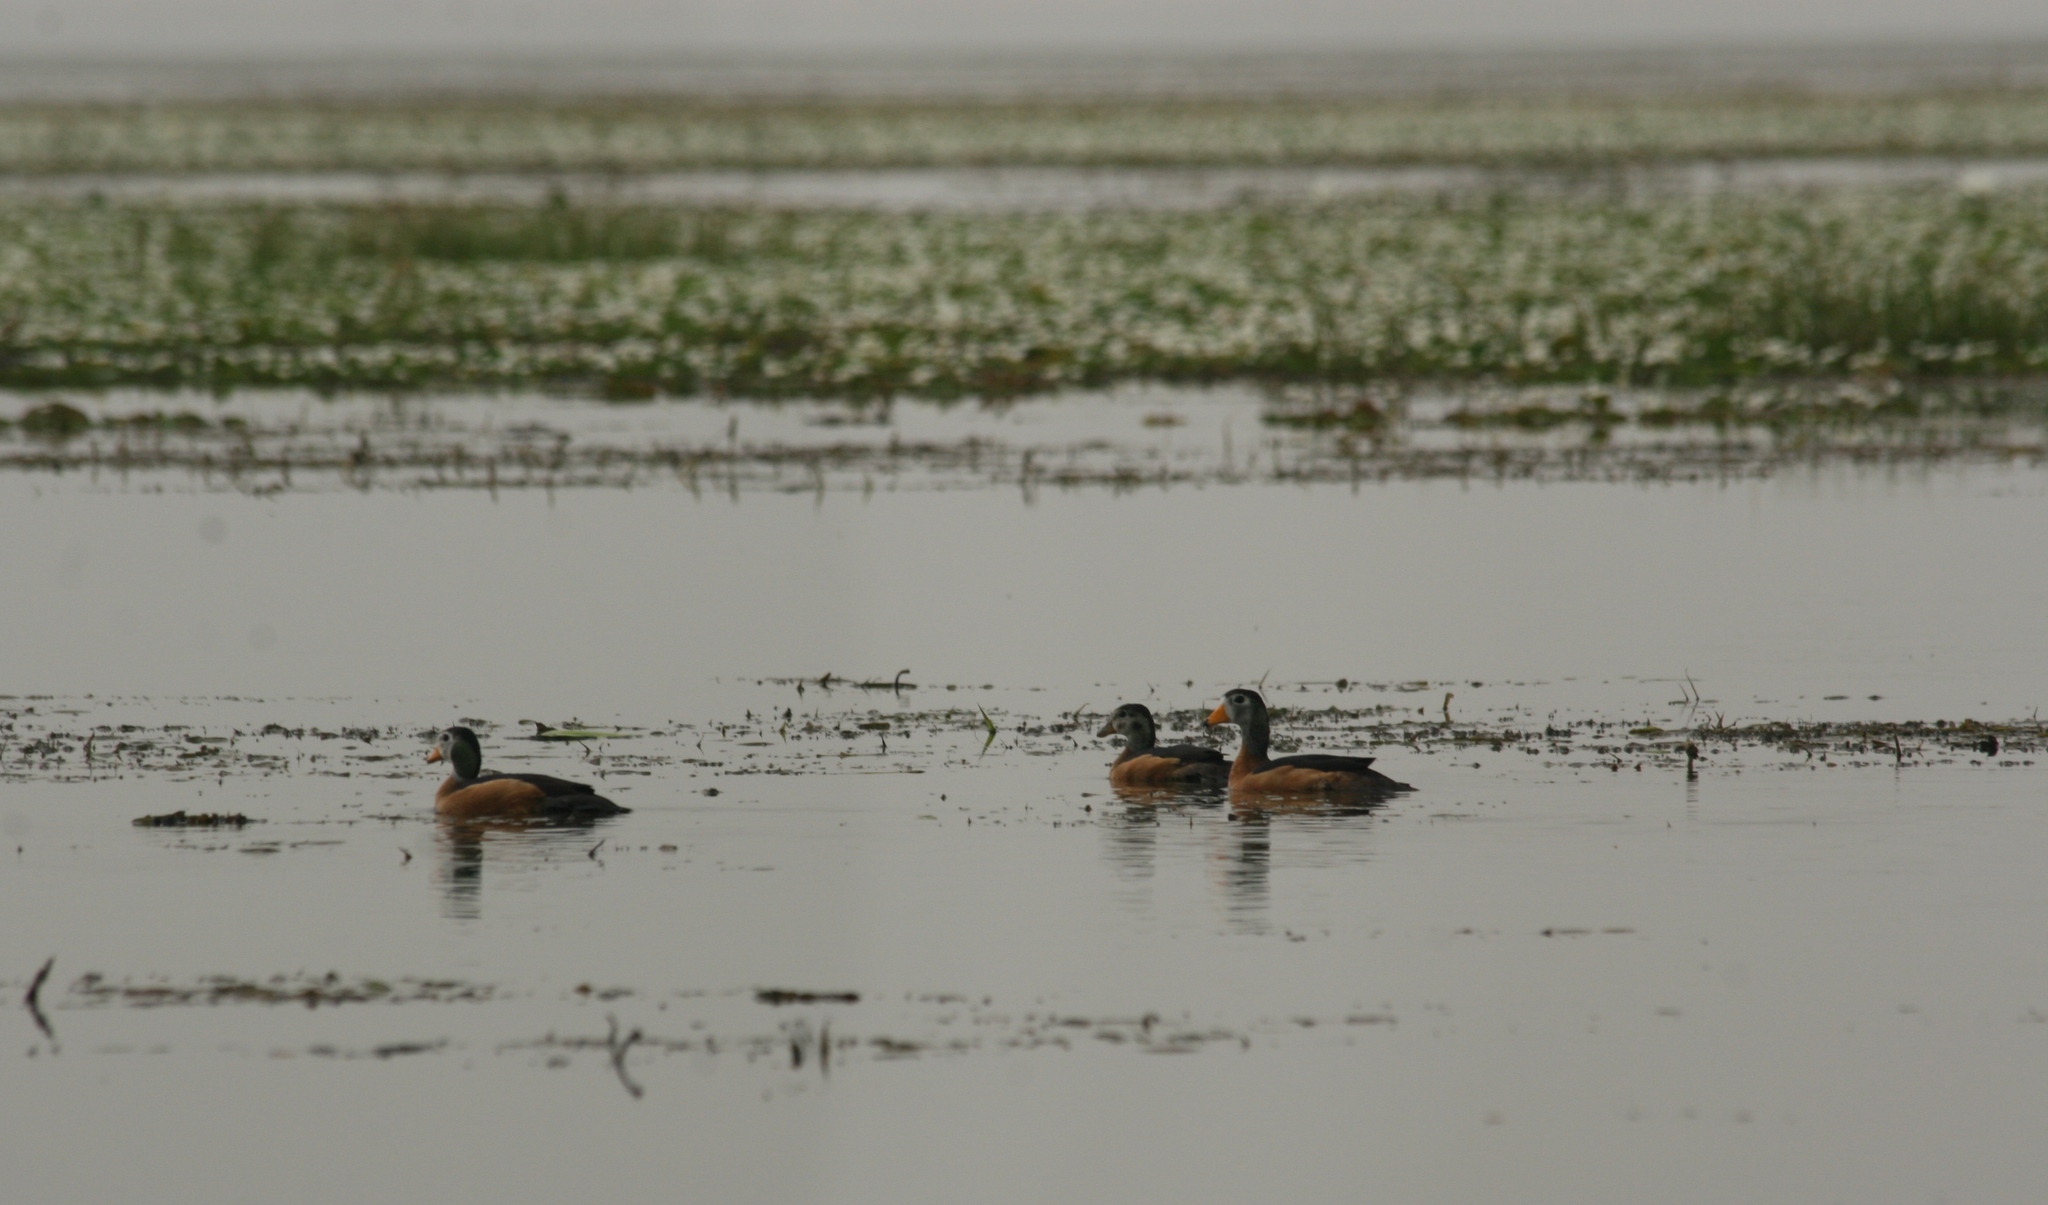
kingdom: Animalia
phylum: Chordata
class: Aves
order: Anseriformes
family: Anatidae
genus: Nettapus
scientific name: Nettapus auritus
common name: African pygmy-goose
